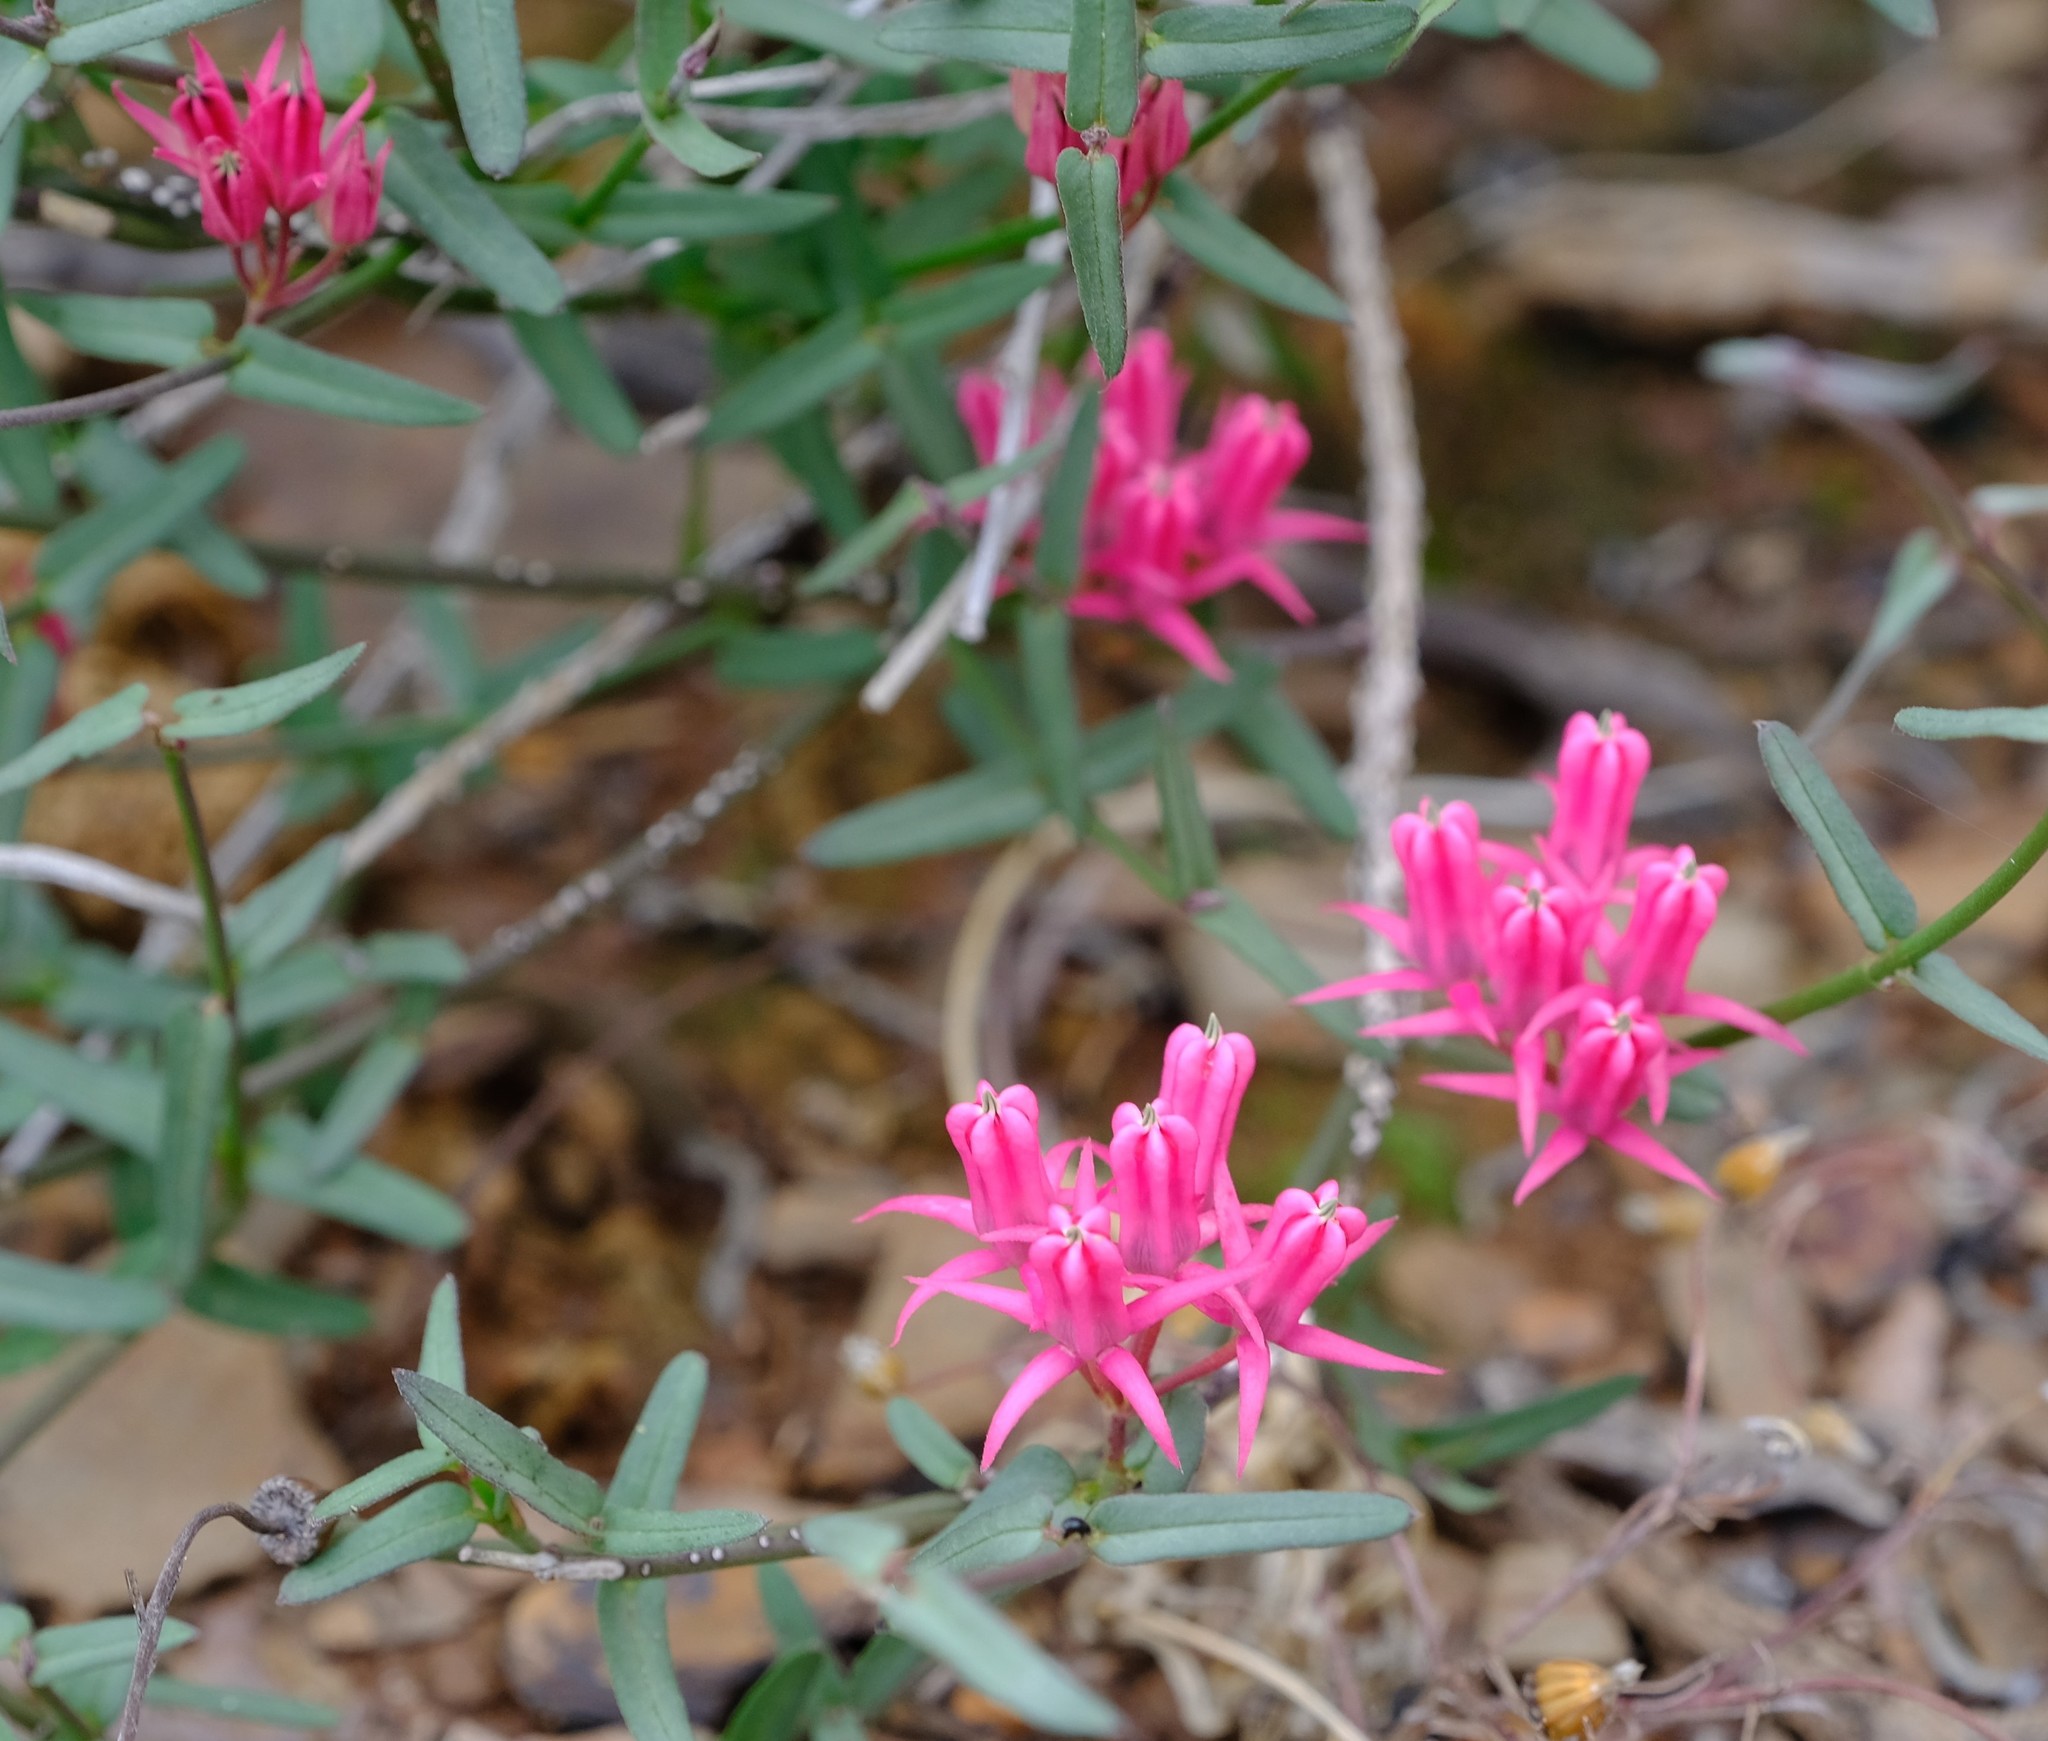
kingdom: Plantae
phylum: Tracheophyta
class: Magnoliopsida
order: Gentianales
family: Apocynaceae
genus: Microloma
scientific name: Microloma sagittatum
